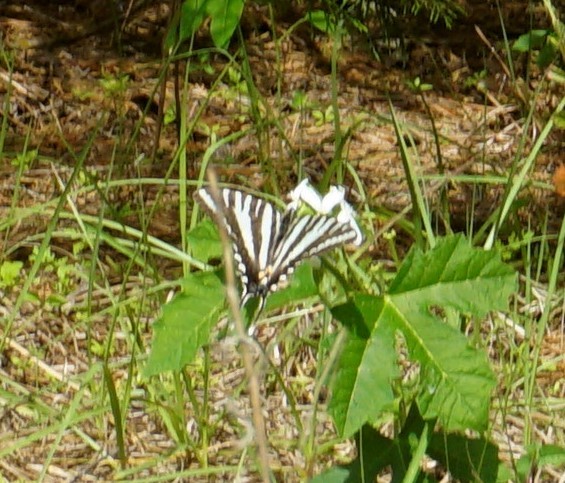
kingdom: Animalia
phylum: Arthropoda
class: Insecta
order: Lepidoptera
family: Papilionidae
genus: Protographium
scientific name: Protographium marcellus
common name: Zebra swallowtail
